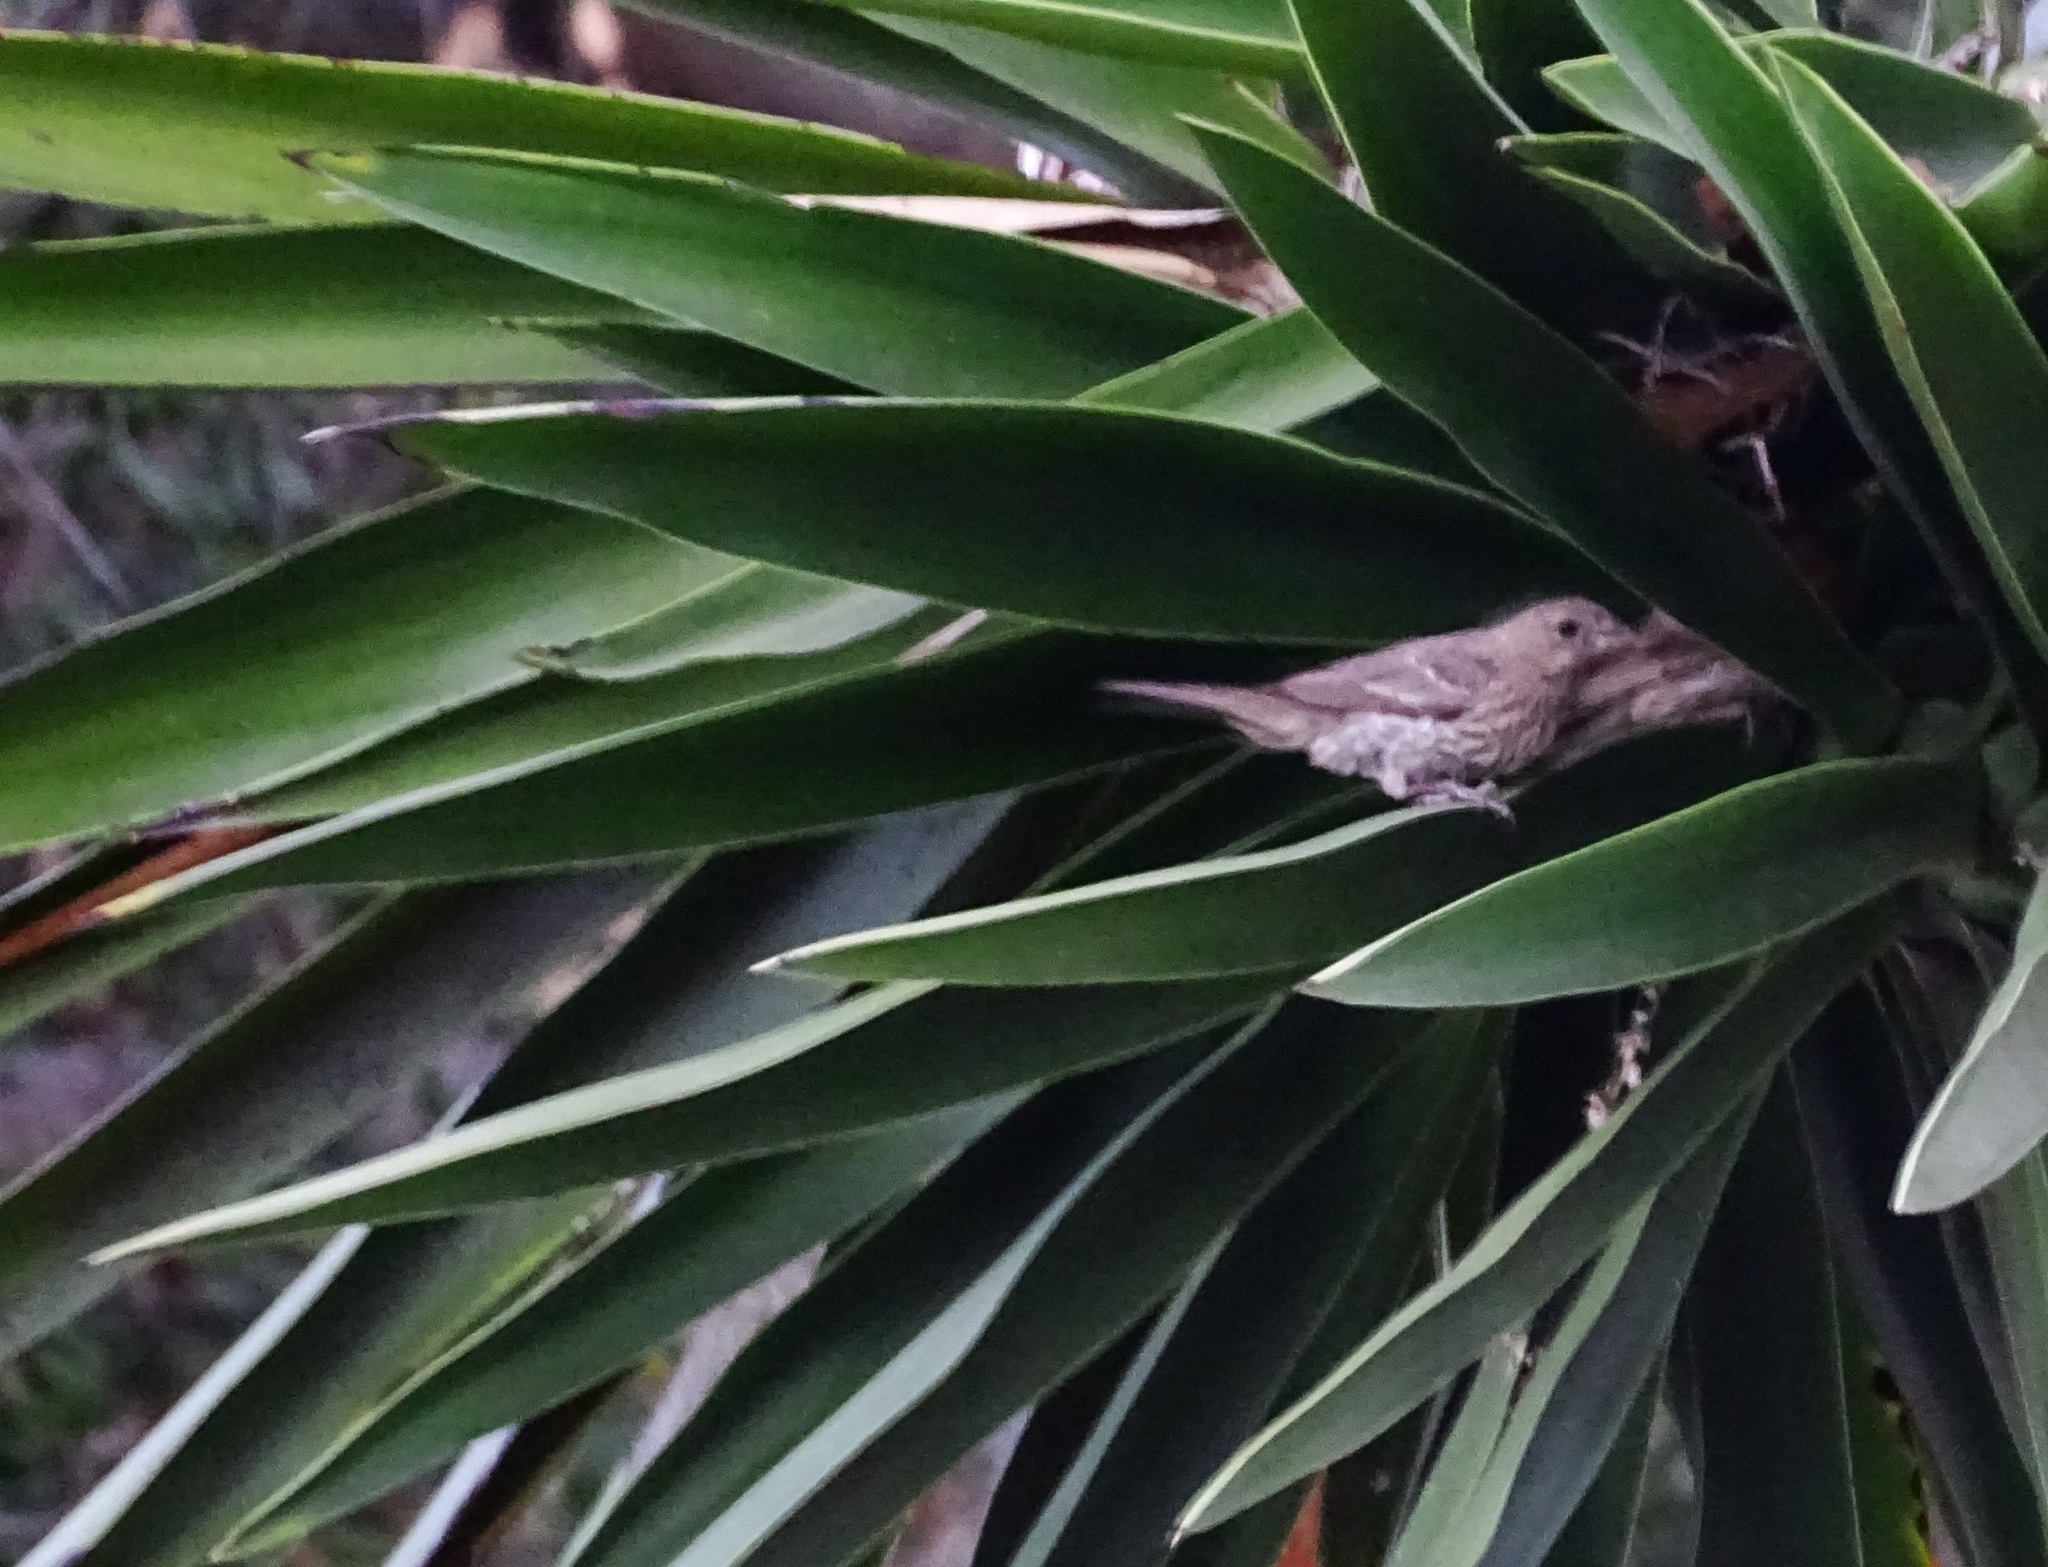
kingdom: Animalia
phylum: Chordata
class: Aves
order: Passeriformes
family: Fringillidae
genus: Haemorhous
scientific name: Haemorhous mexicanus
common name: House finch
